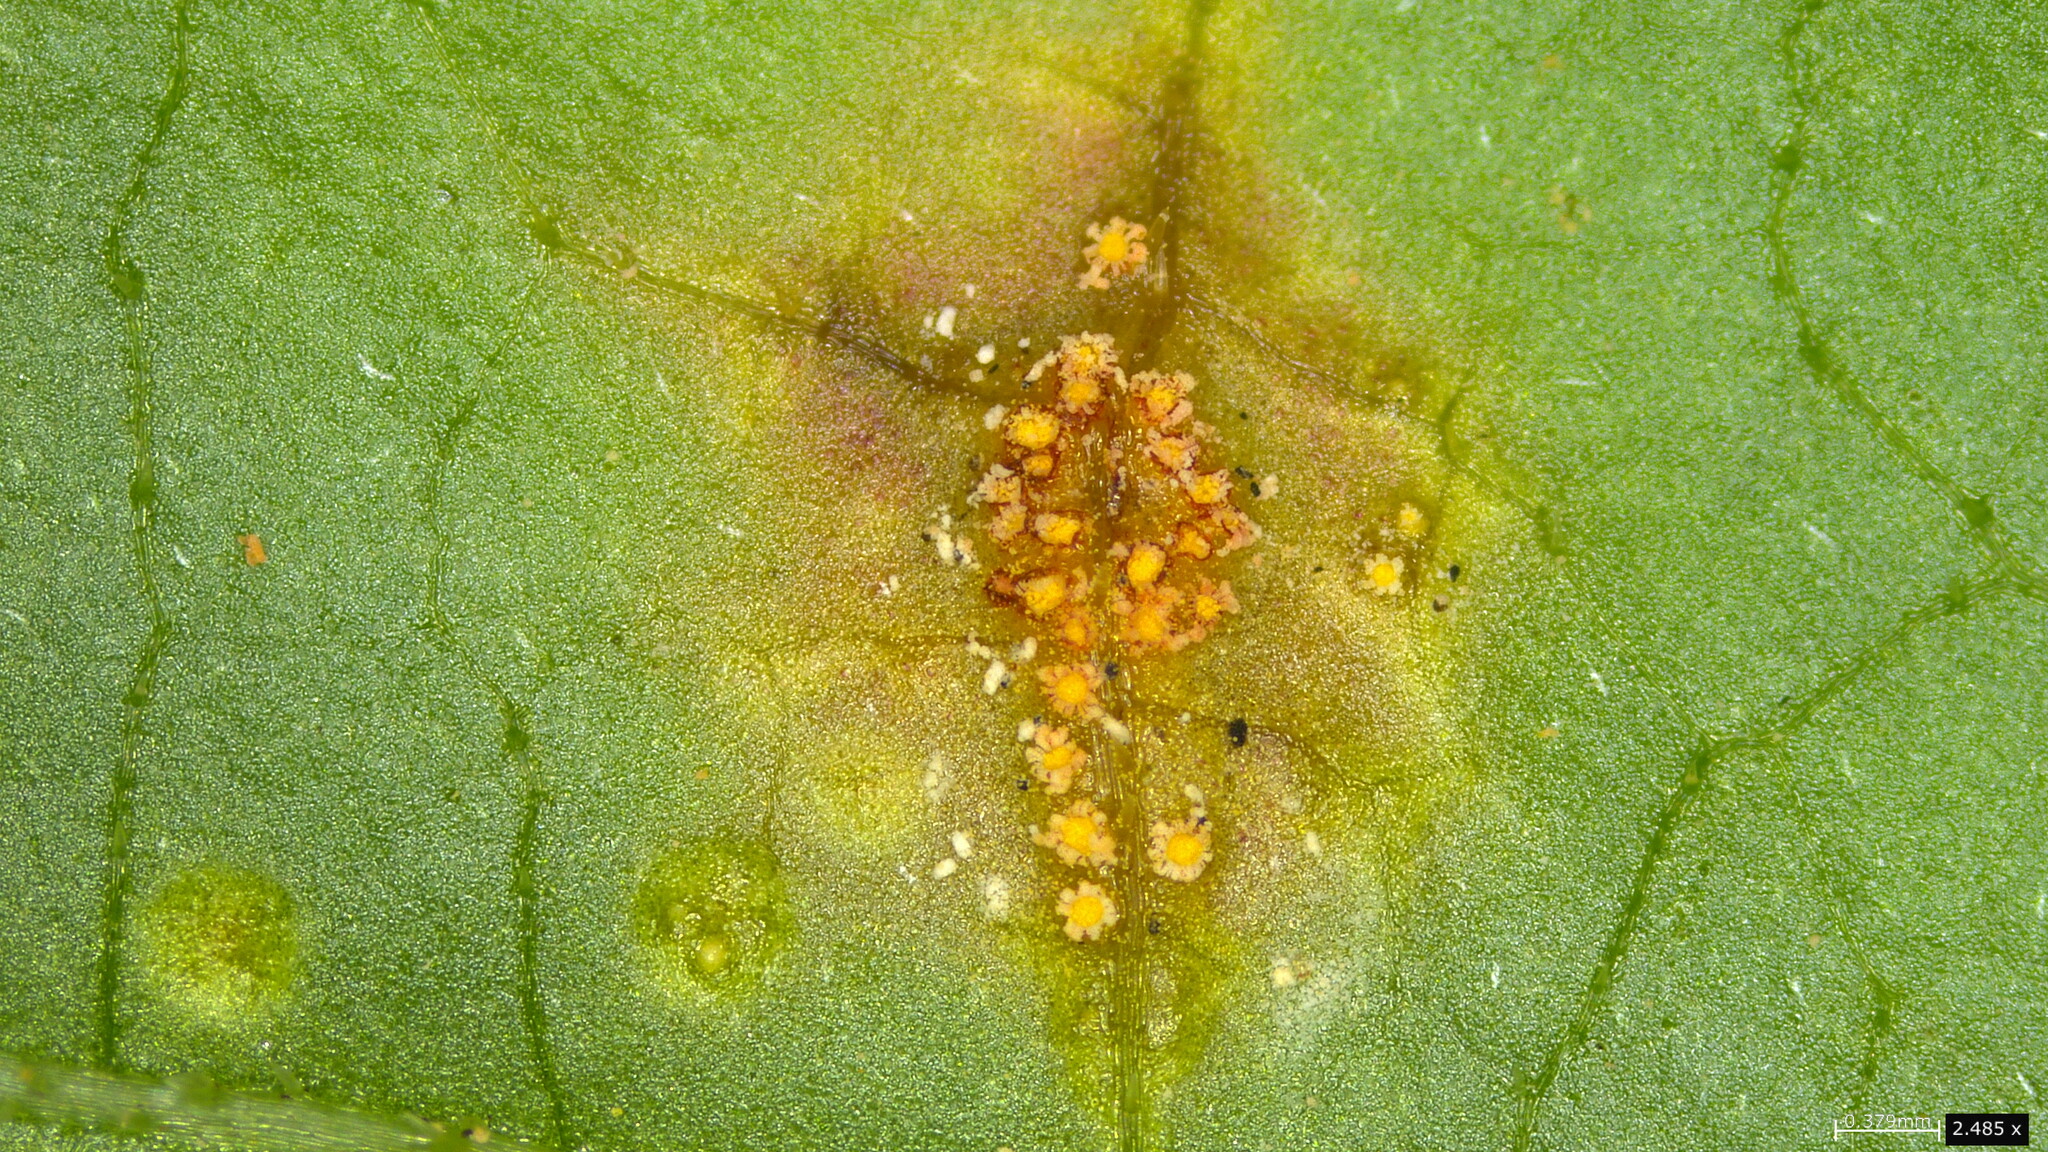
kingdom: Fungi
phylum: Basidiomycota
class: Pucciniomycetes
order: Pucciniales
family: Pucciniaceae
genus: Puccinia
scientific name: Puccinia paederiae
